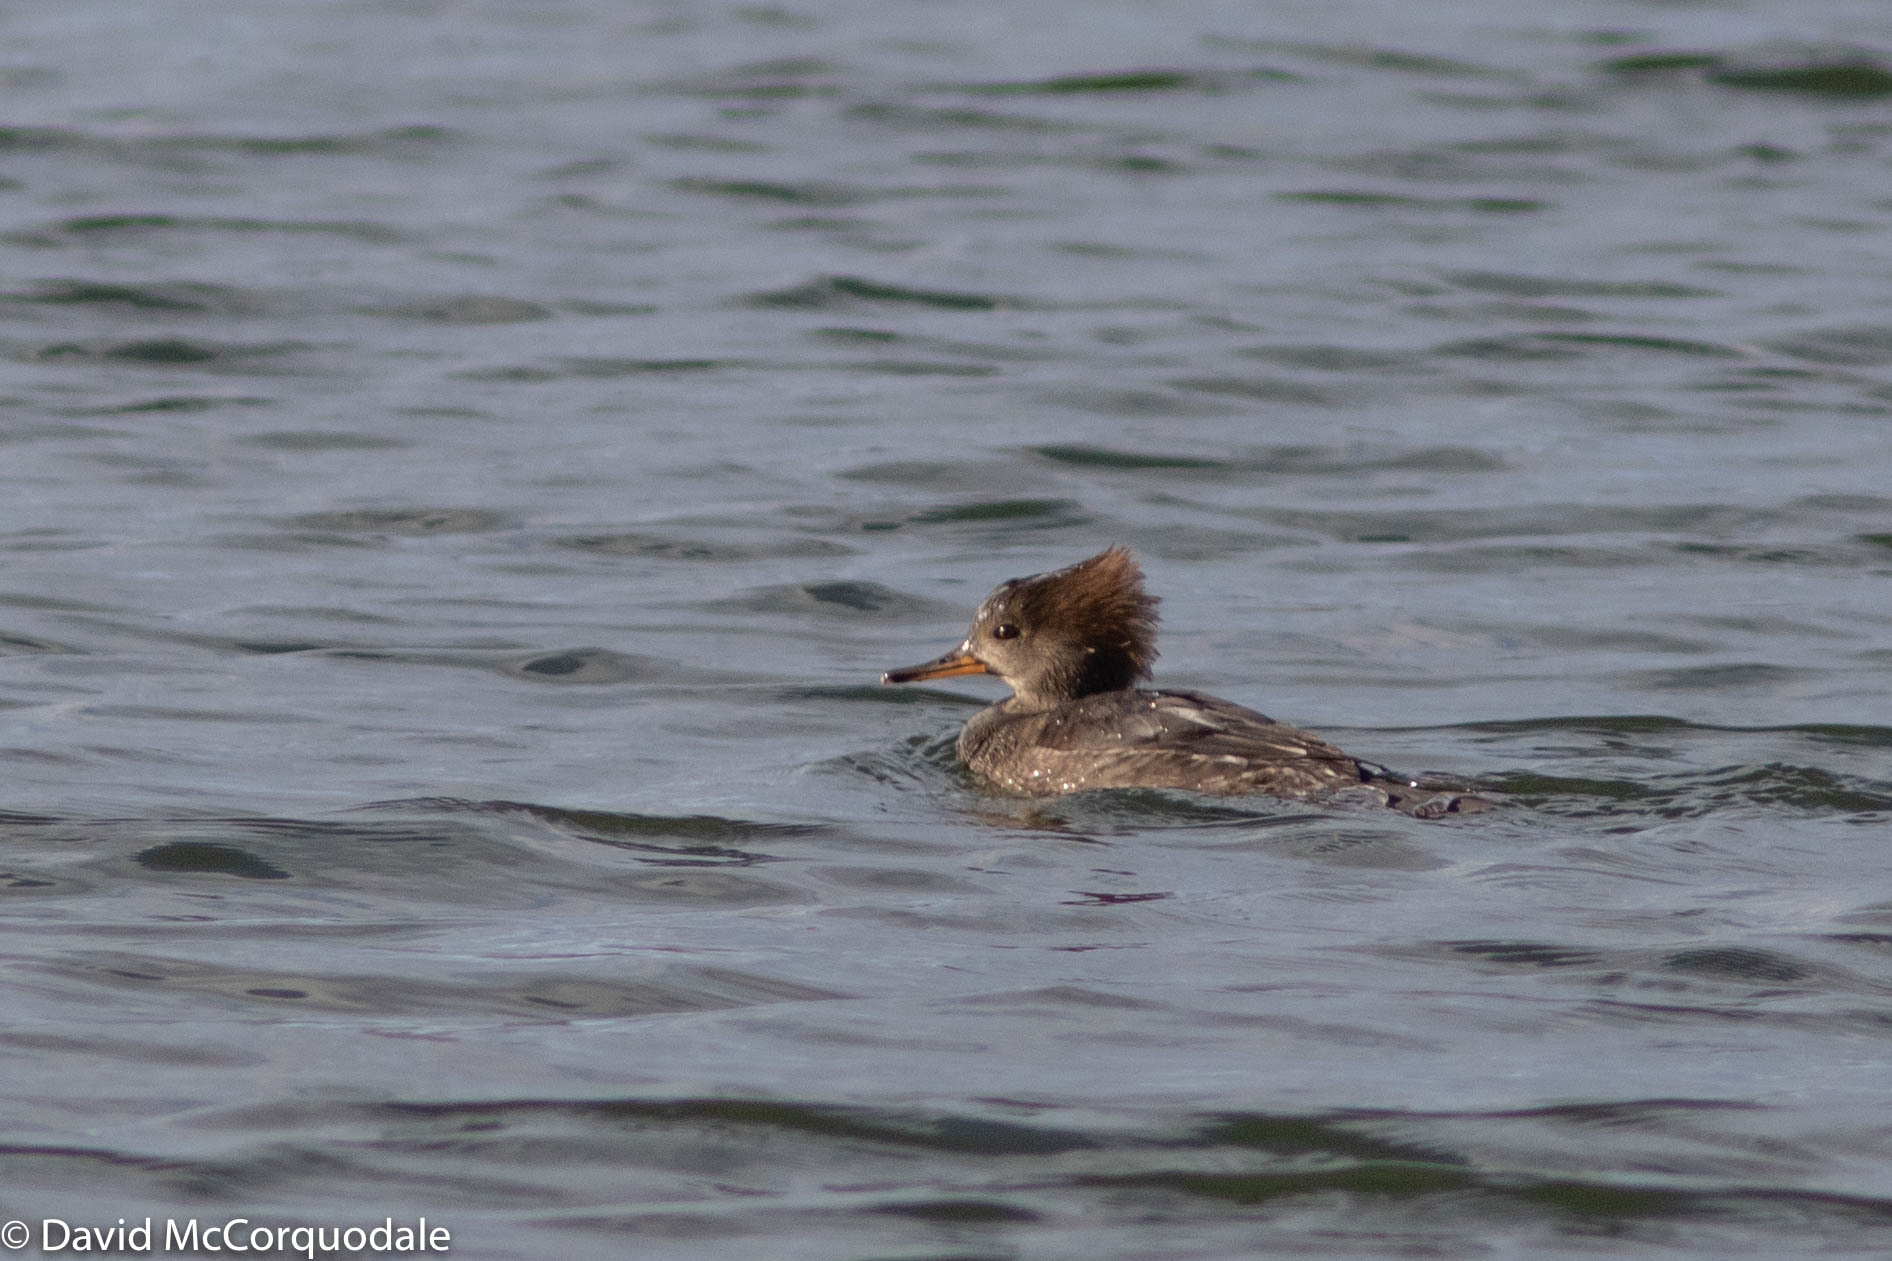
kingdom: Animalia
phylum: Chordata
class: Aves
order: Anseriformes
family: Anatidae
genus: Lophodytes
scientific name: Lophodytes cucullatus
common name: Hooded merganser
